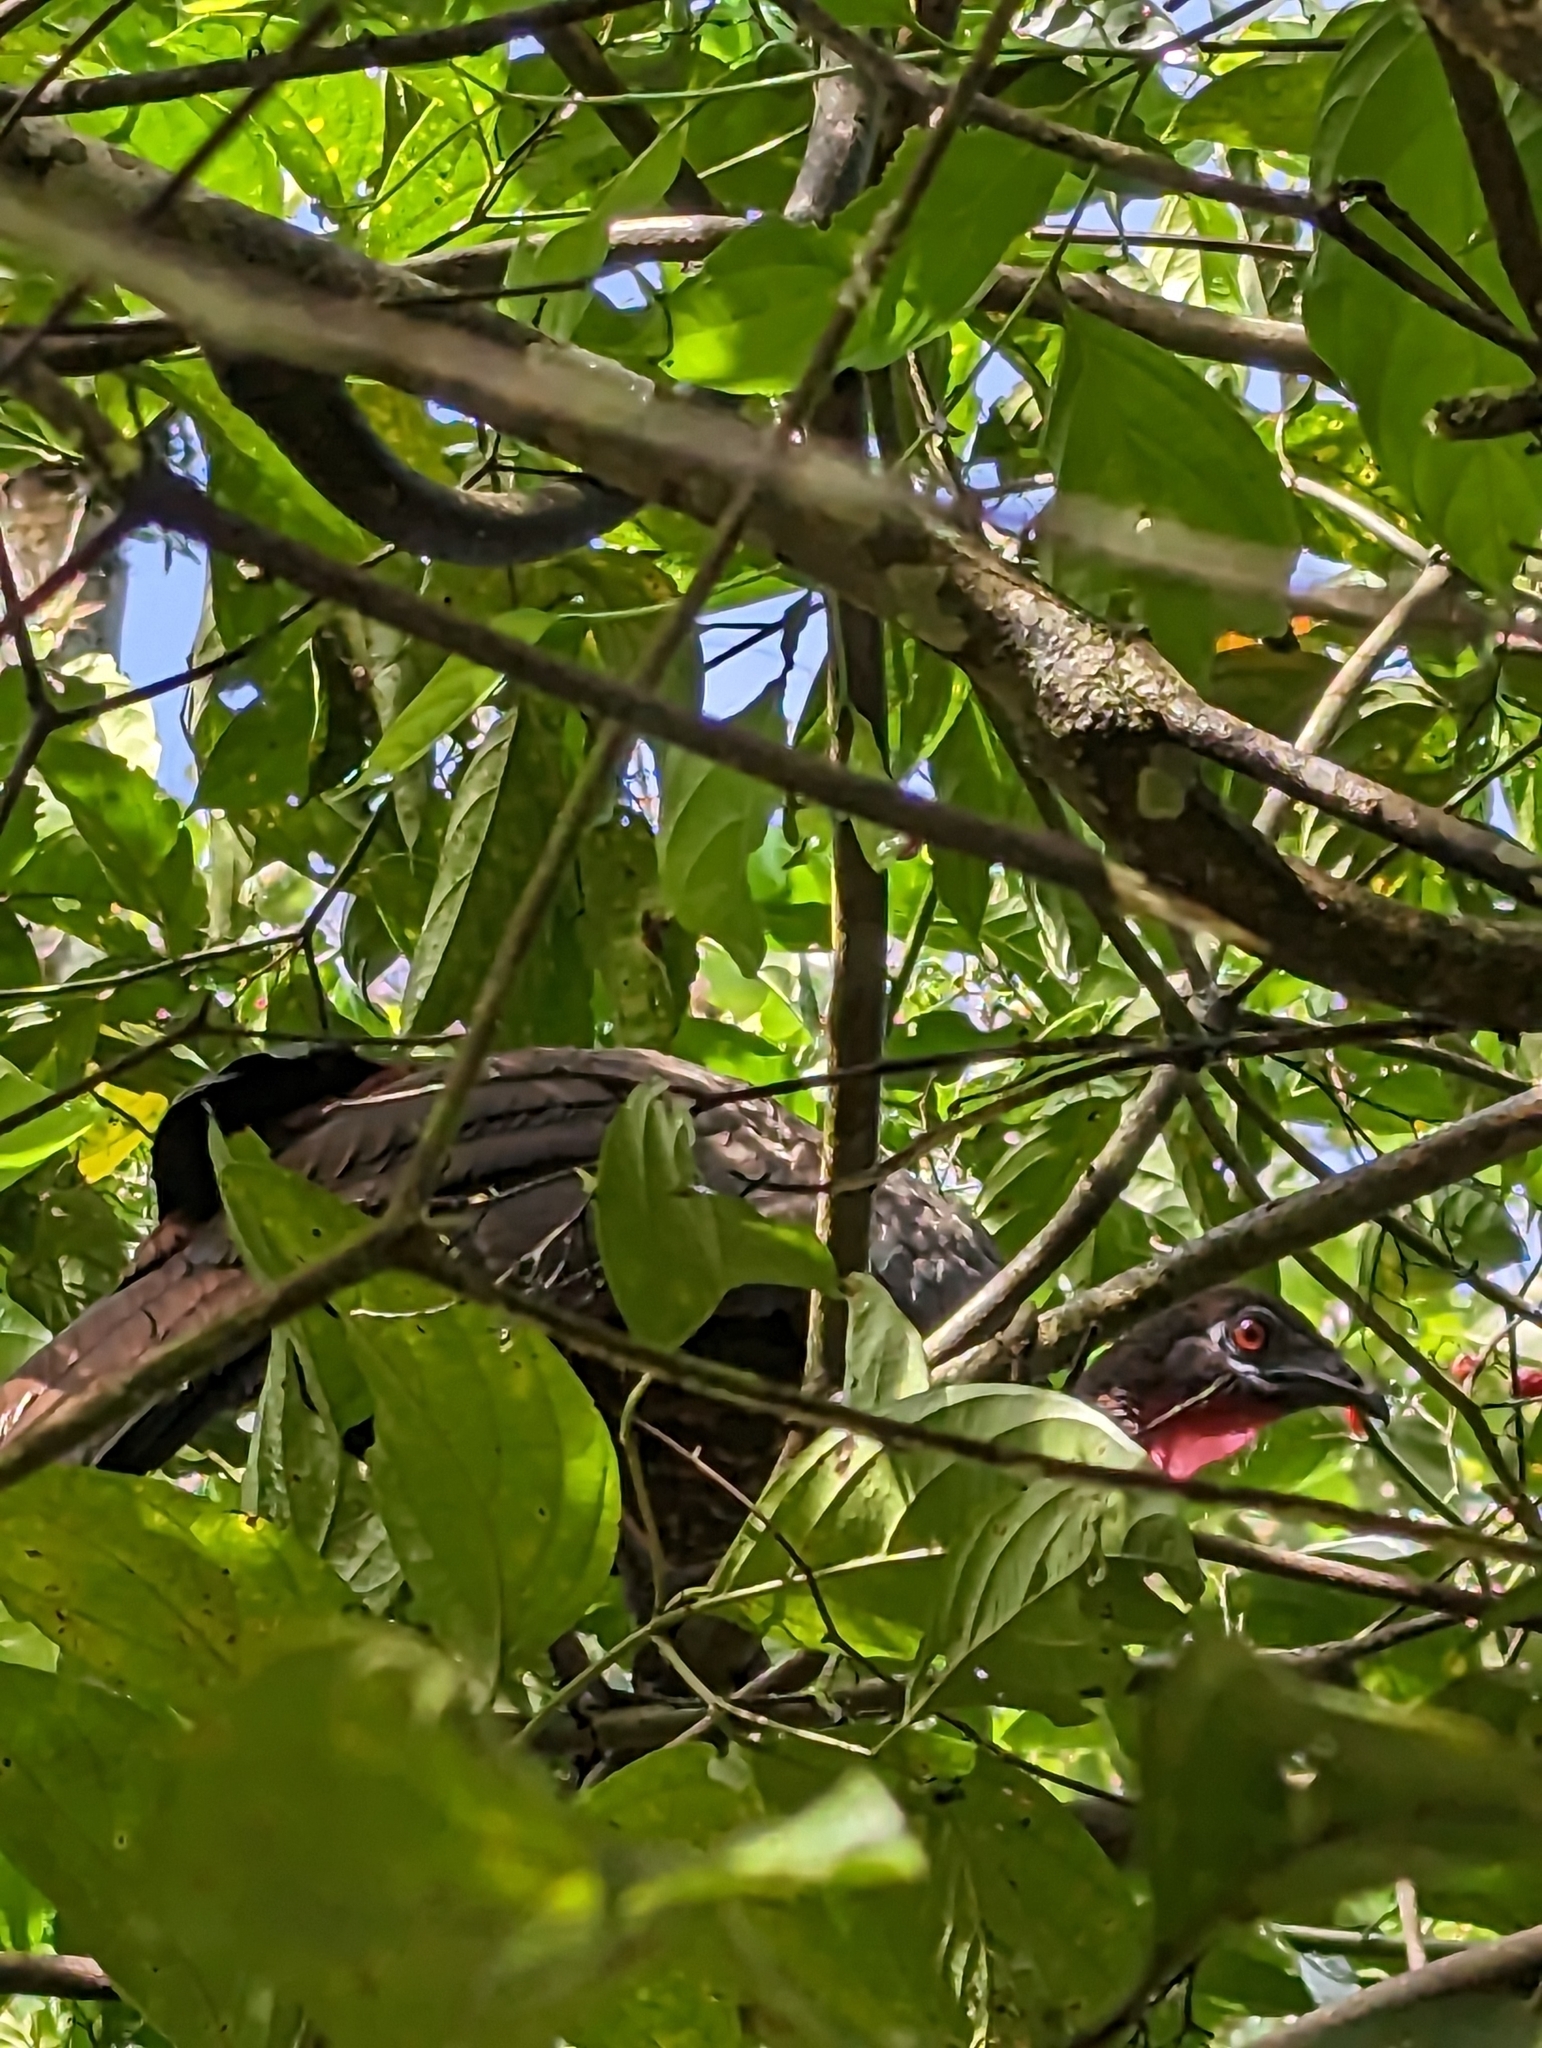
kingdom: Animalia
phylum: Chordata
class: Aves
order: Galliformes
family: Cracidae
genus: Penelope
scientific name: Penelope purpurascens
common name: Crested guan
